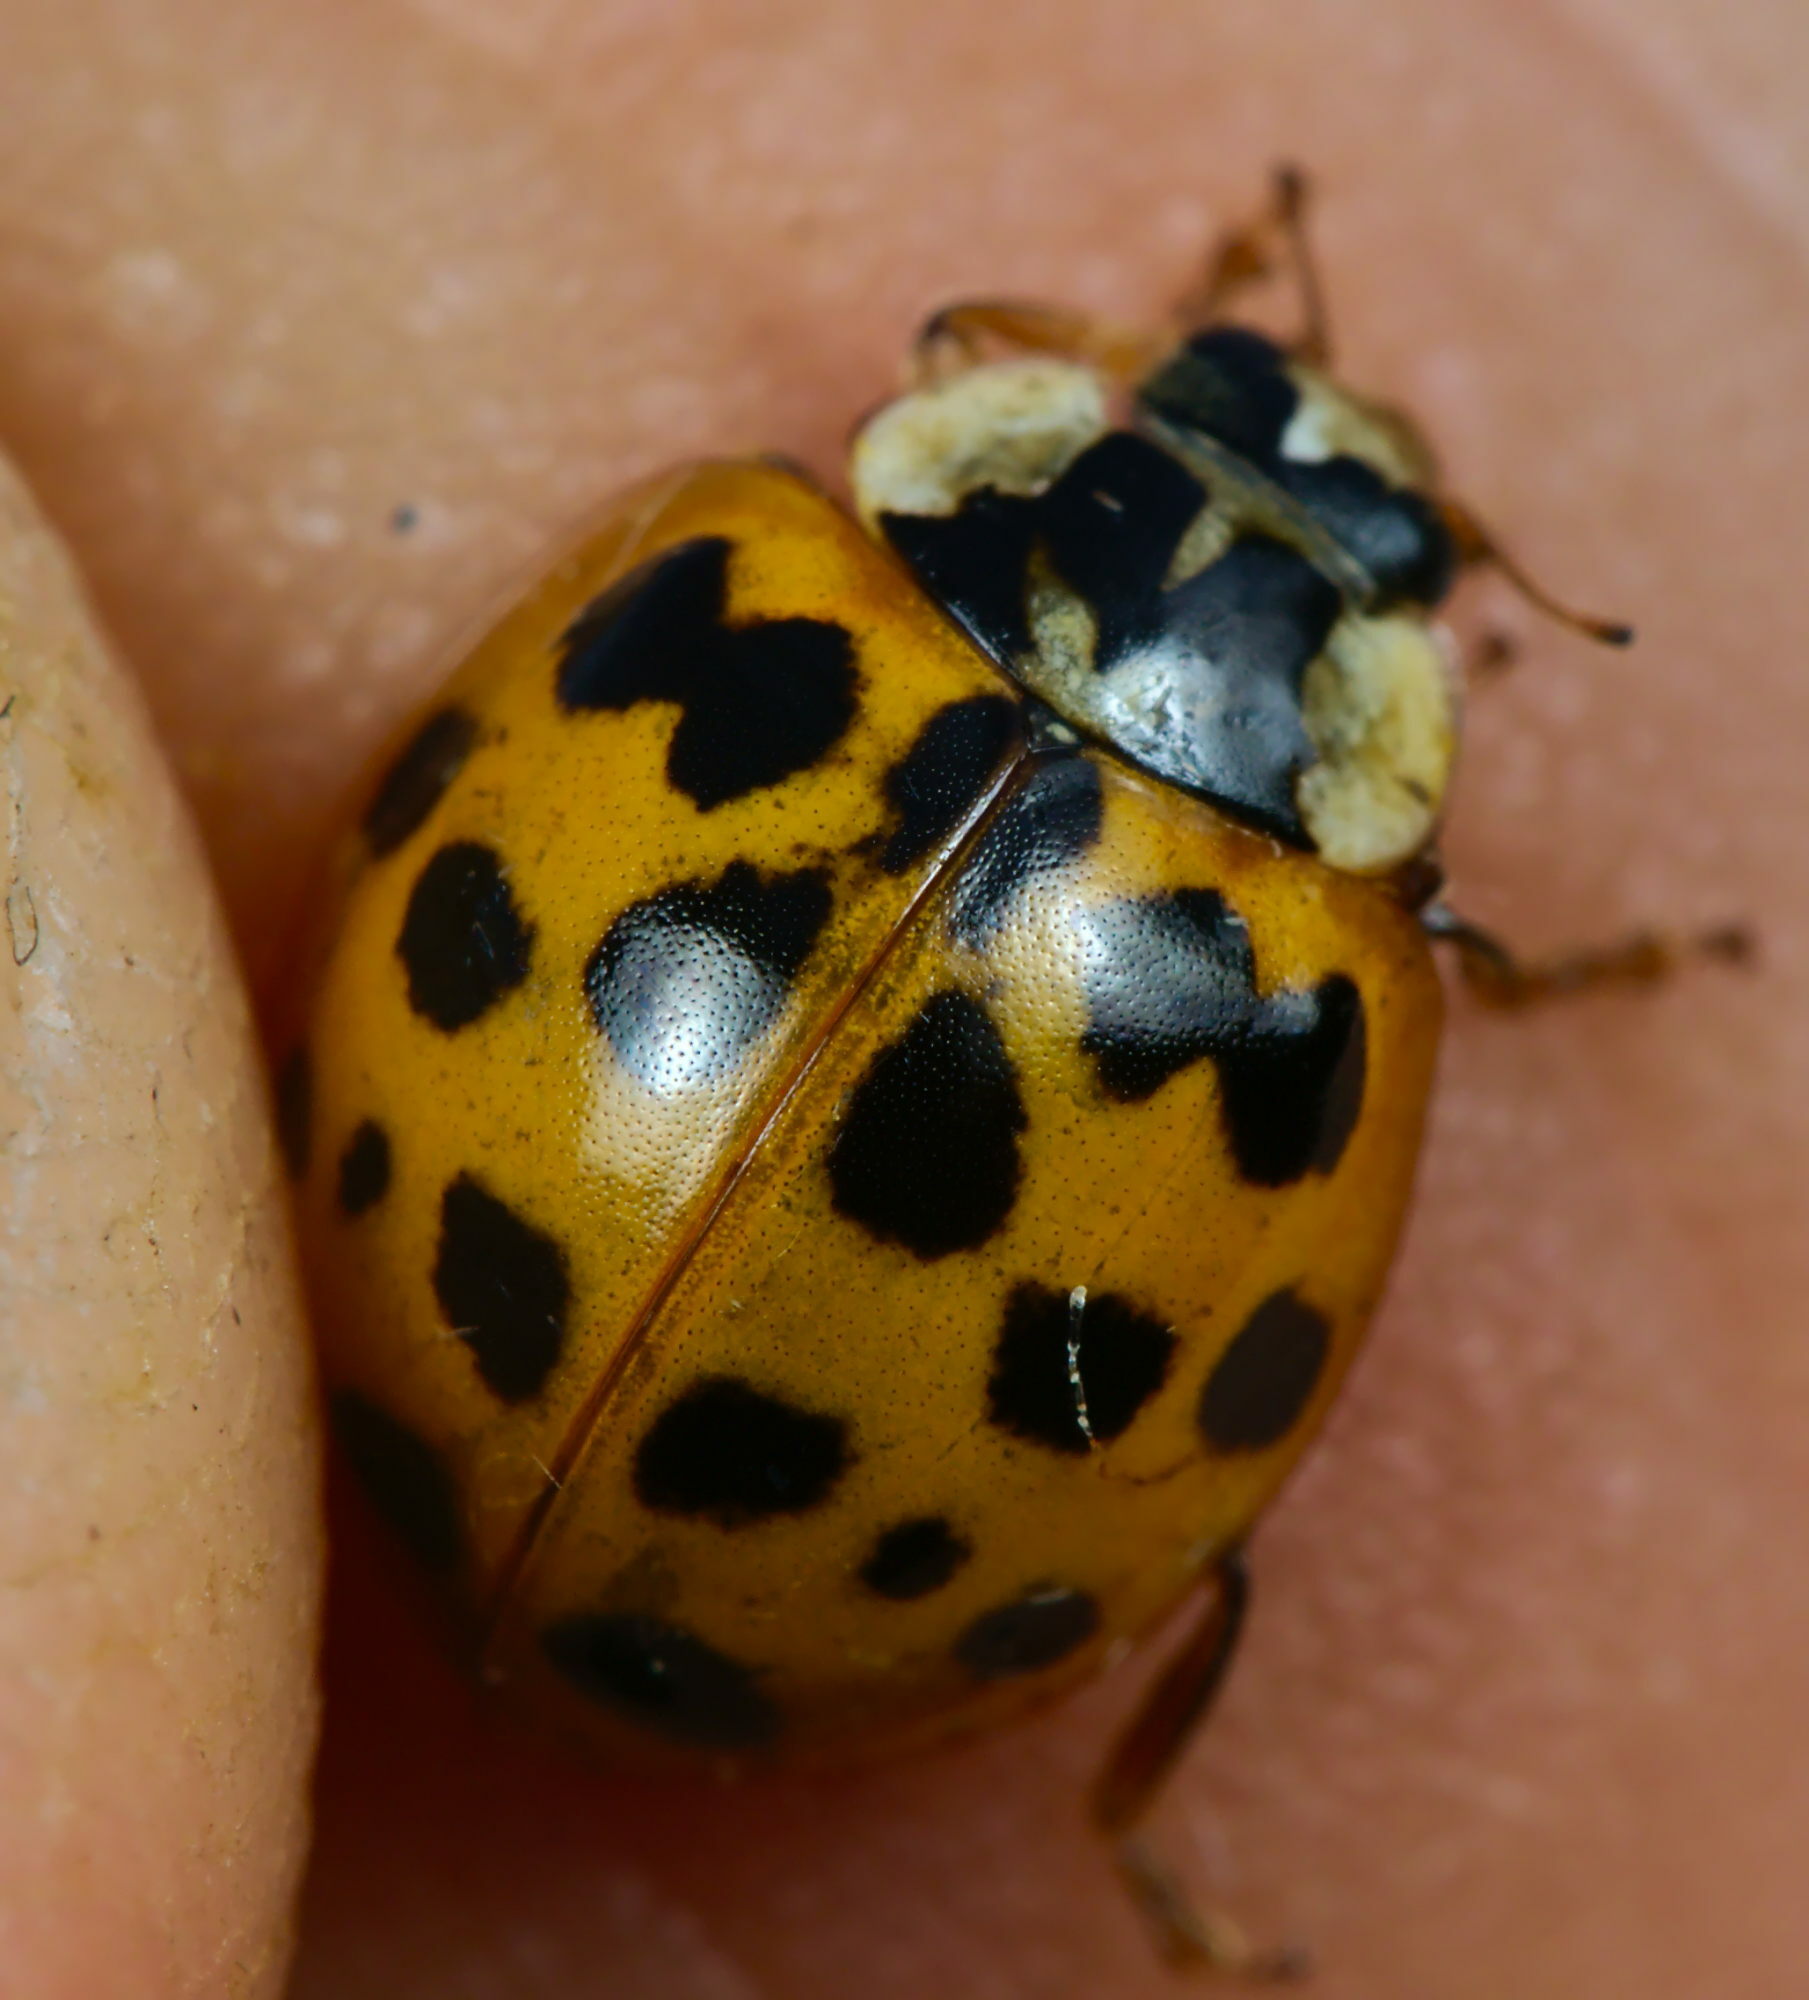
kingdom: Animalia
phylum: Arthropoda
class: Insecta
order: Coleoptera
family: Coccinellidae
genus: Harmonia
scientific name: Harmonia axyridis
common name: Harlequin ladybird
